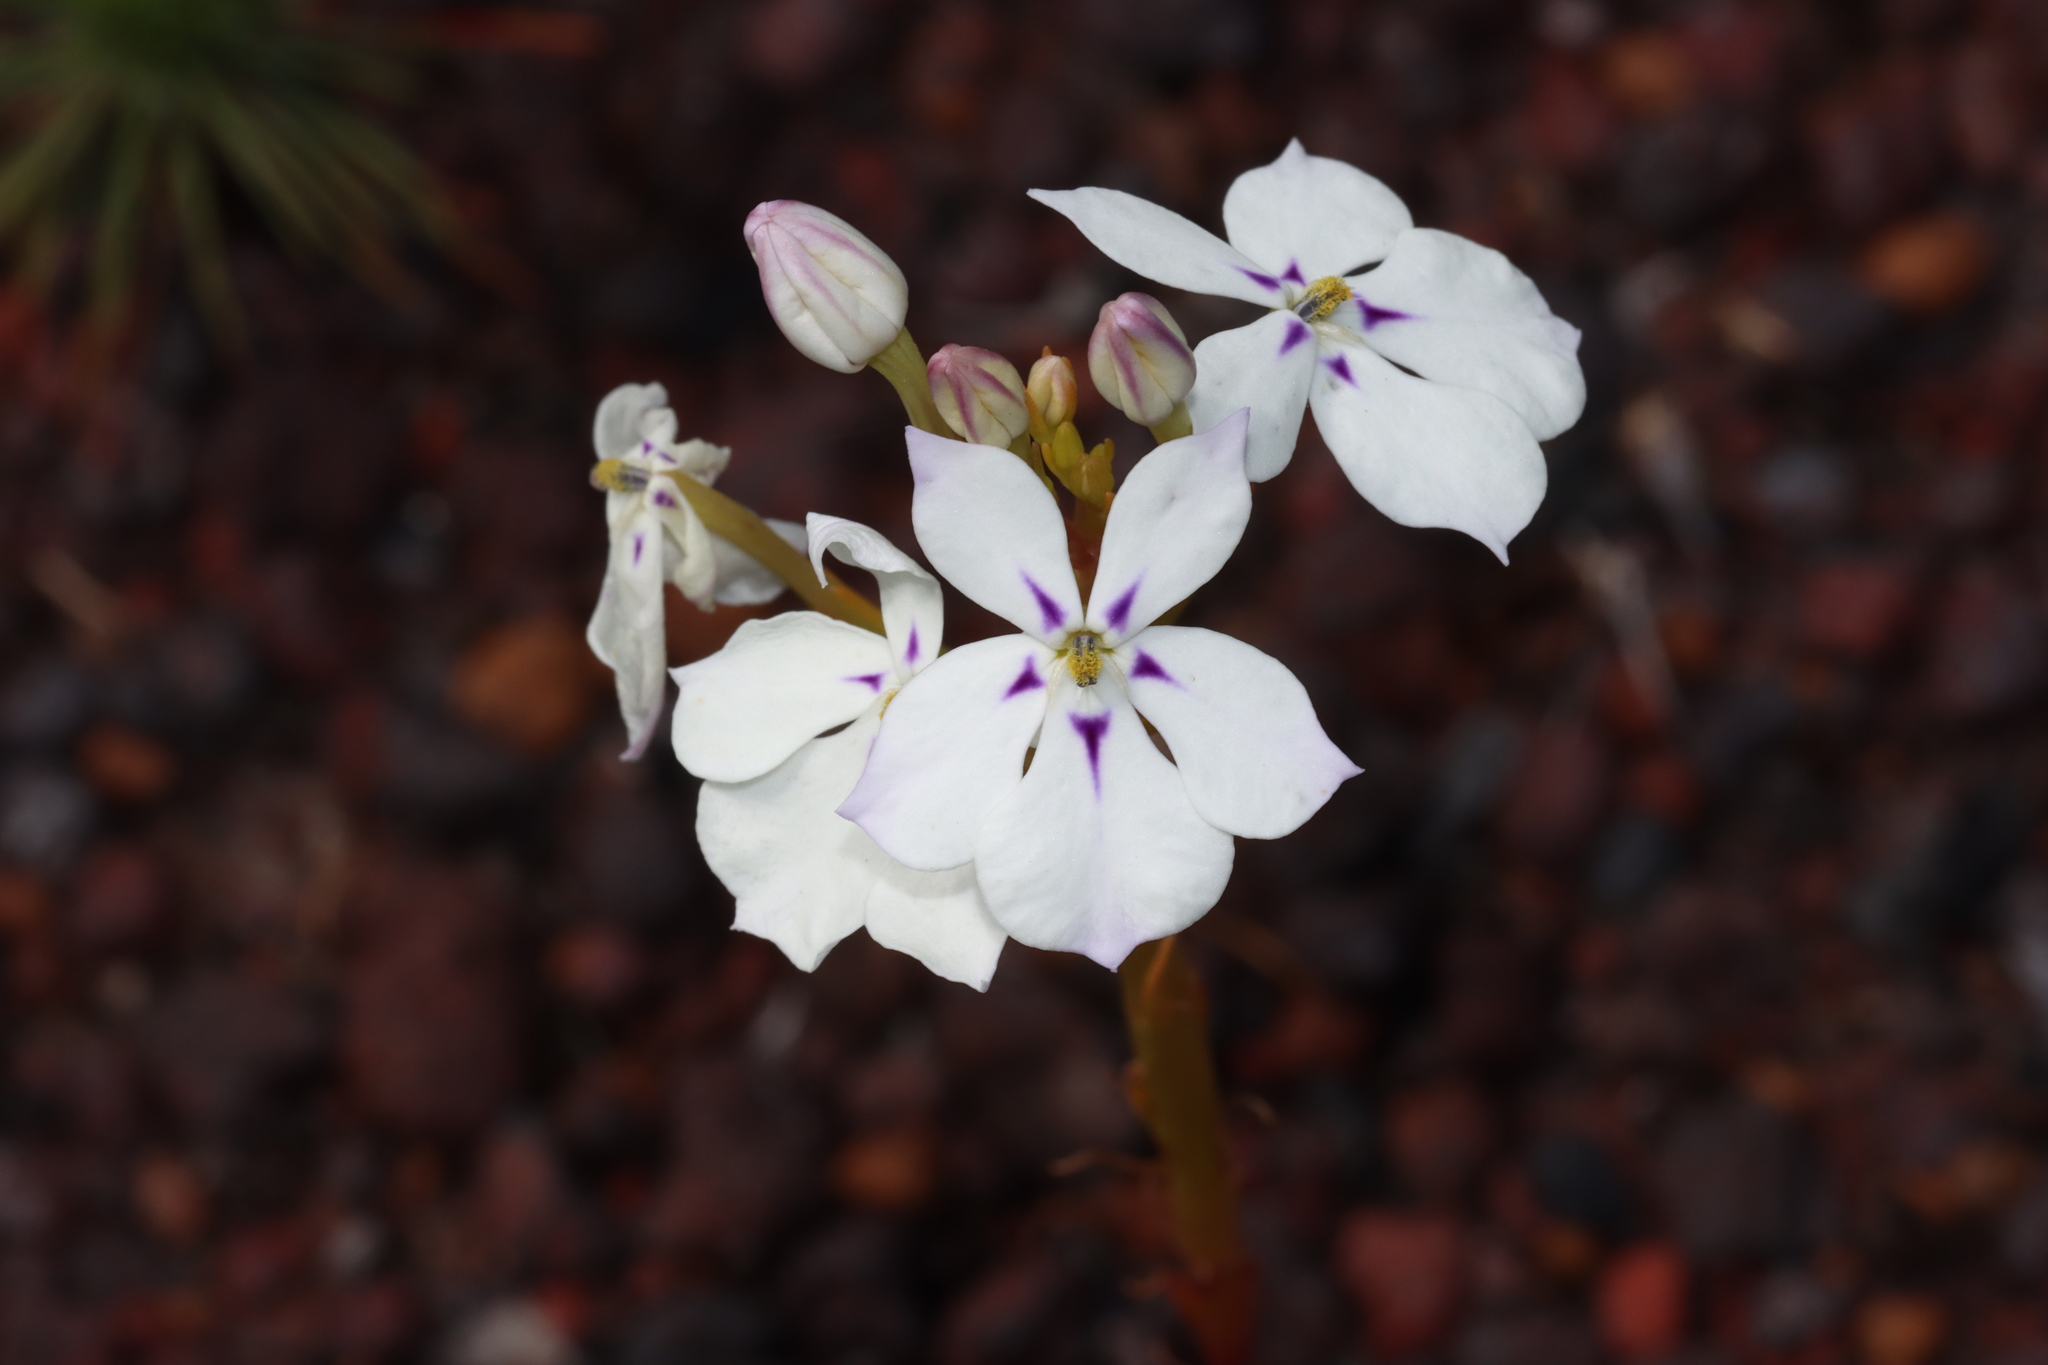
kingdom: Plantae
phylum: Tracheophyta
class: Magnoliopsida
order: Asterales
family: Campanulaceae
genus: Isotoma
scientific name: Isotoma hypocrateriformis
